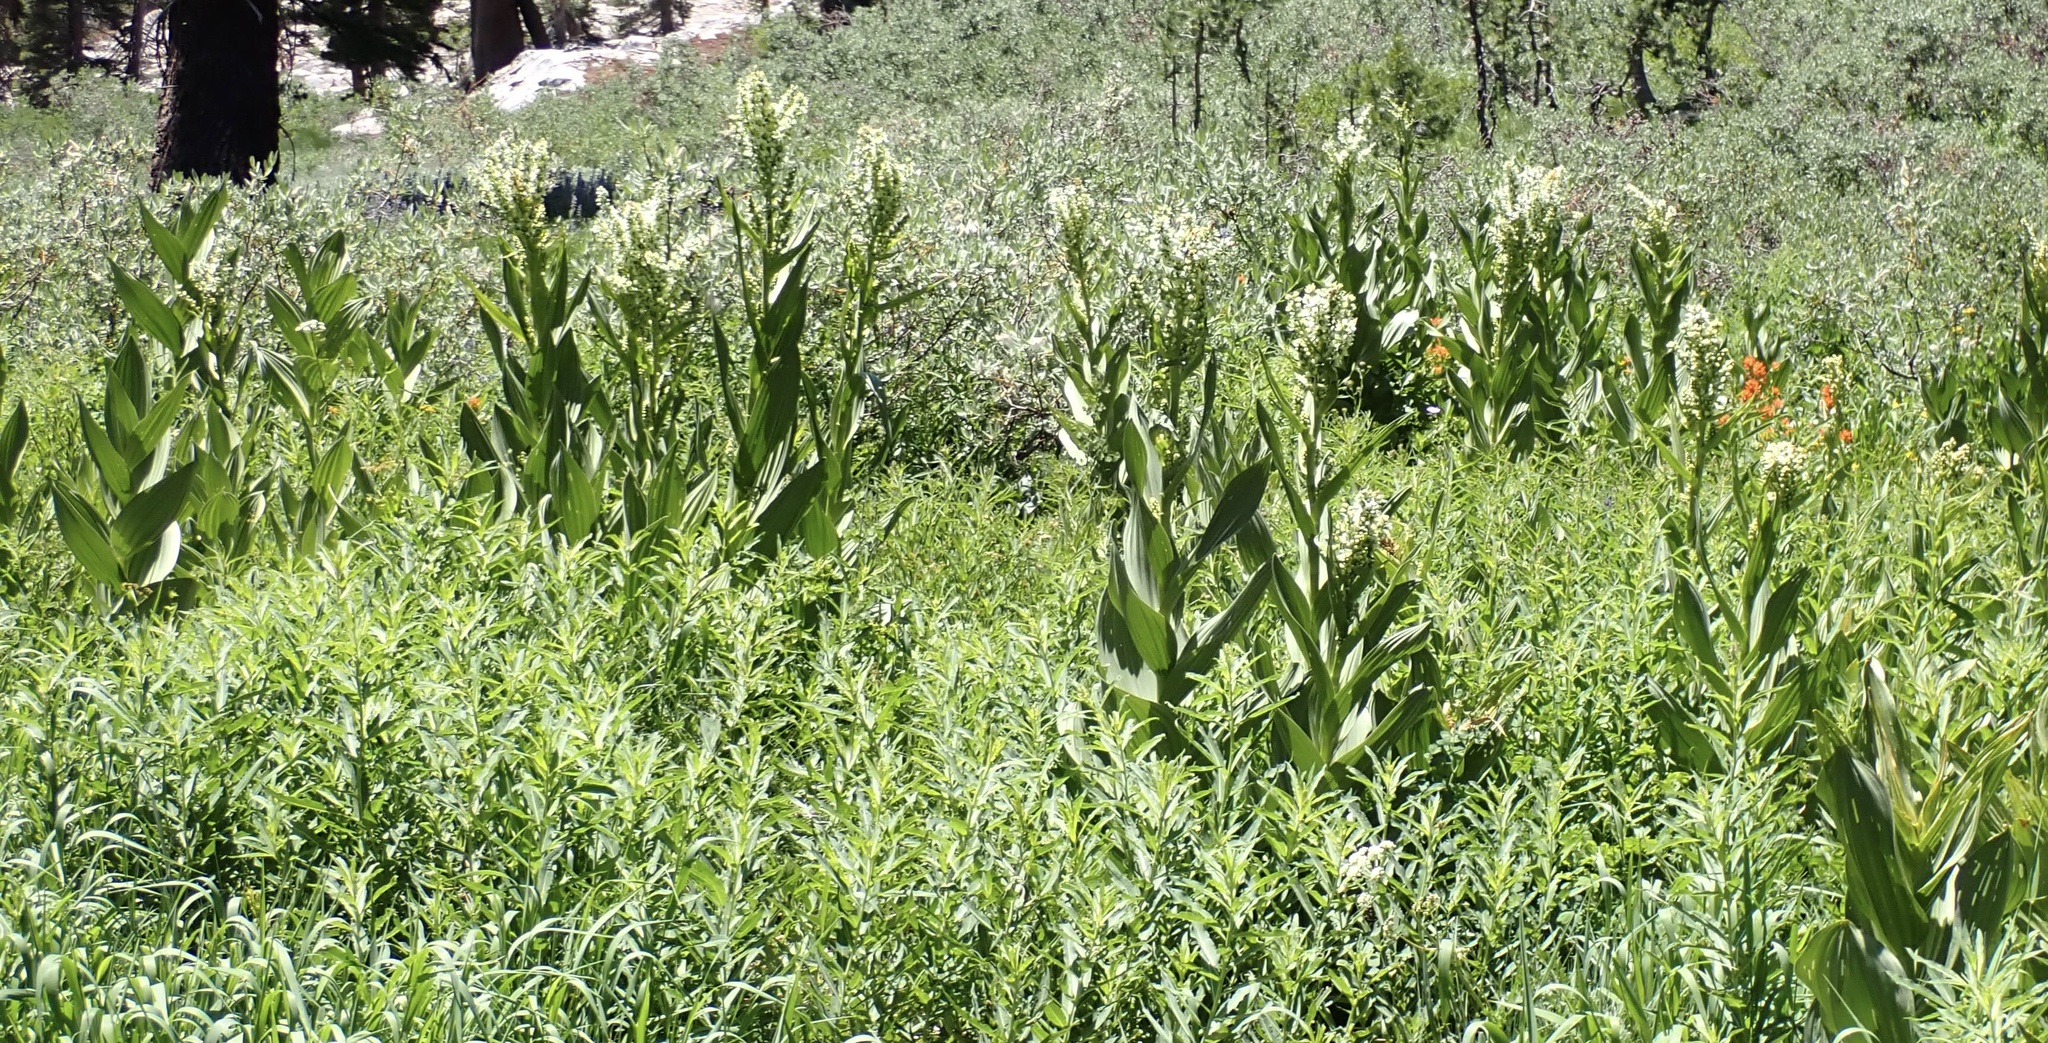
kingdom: Plantae
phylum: Tracheophyta
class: Liliopsida
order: Liliales
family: Melanthiaceae
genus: Veratrum
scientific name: Veratrum californicum
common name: California veratrum
